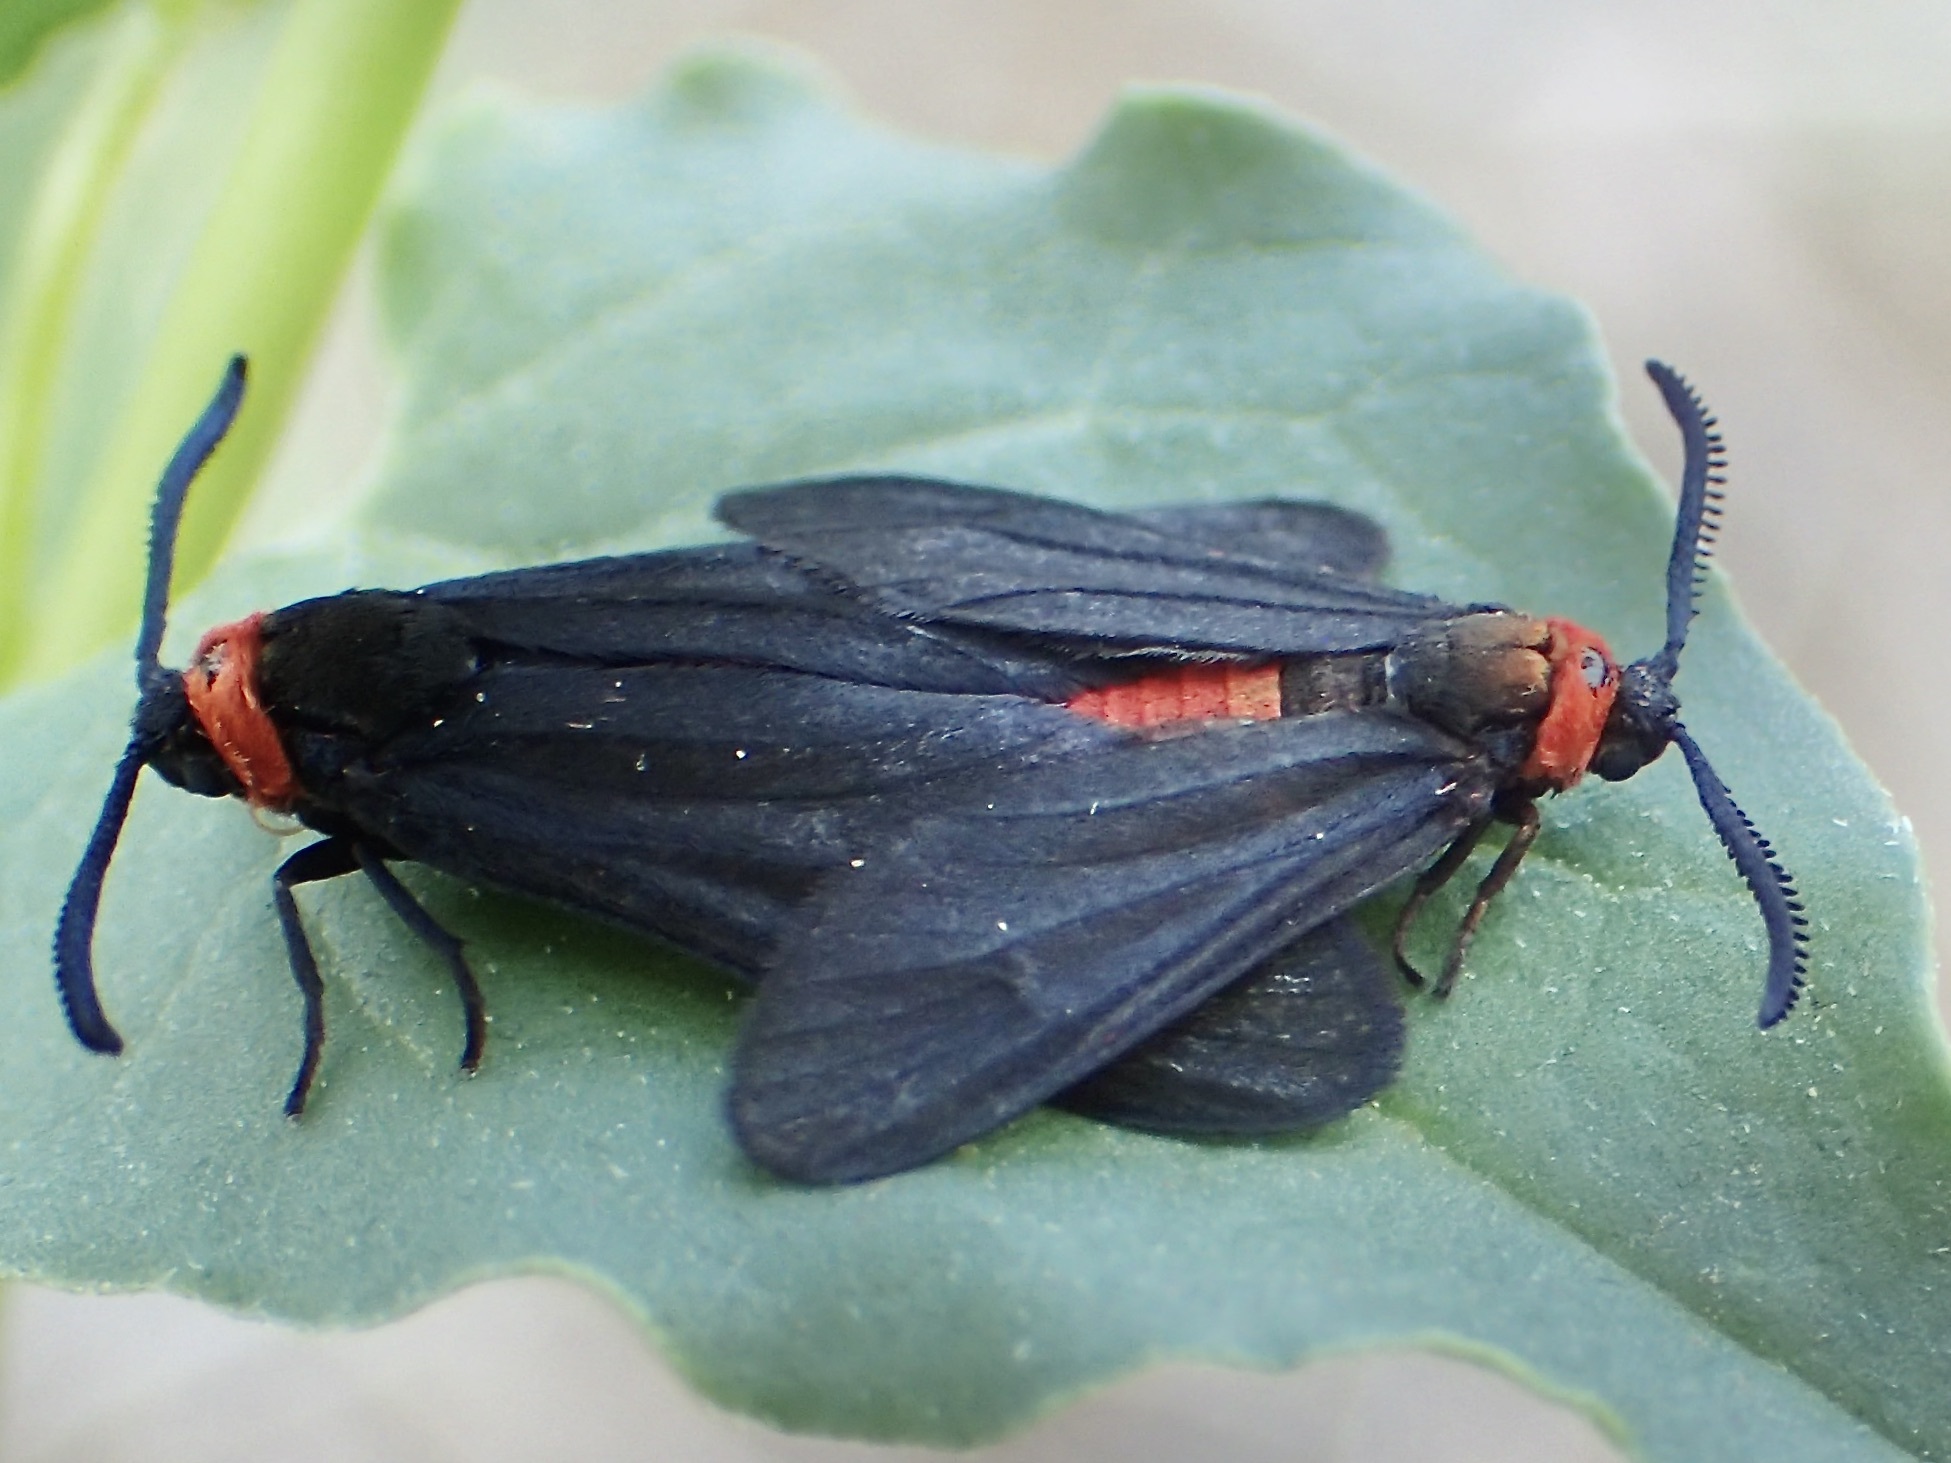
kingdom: Animalia
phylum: Arthropoda
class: Insecta
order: Lepidoptera
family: Zygaenidae
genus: Triprocris
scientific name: Triprocris yampai
